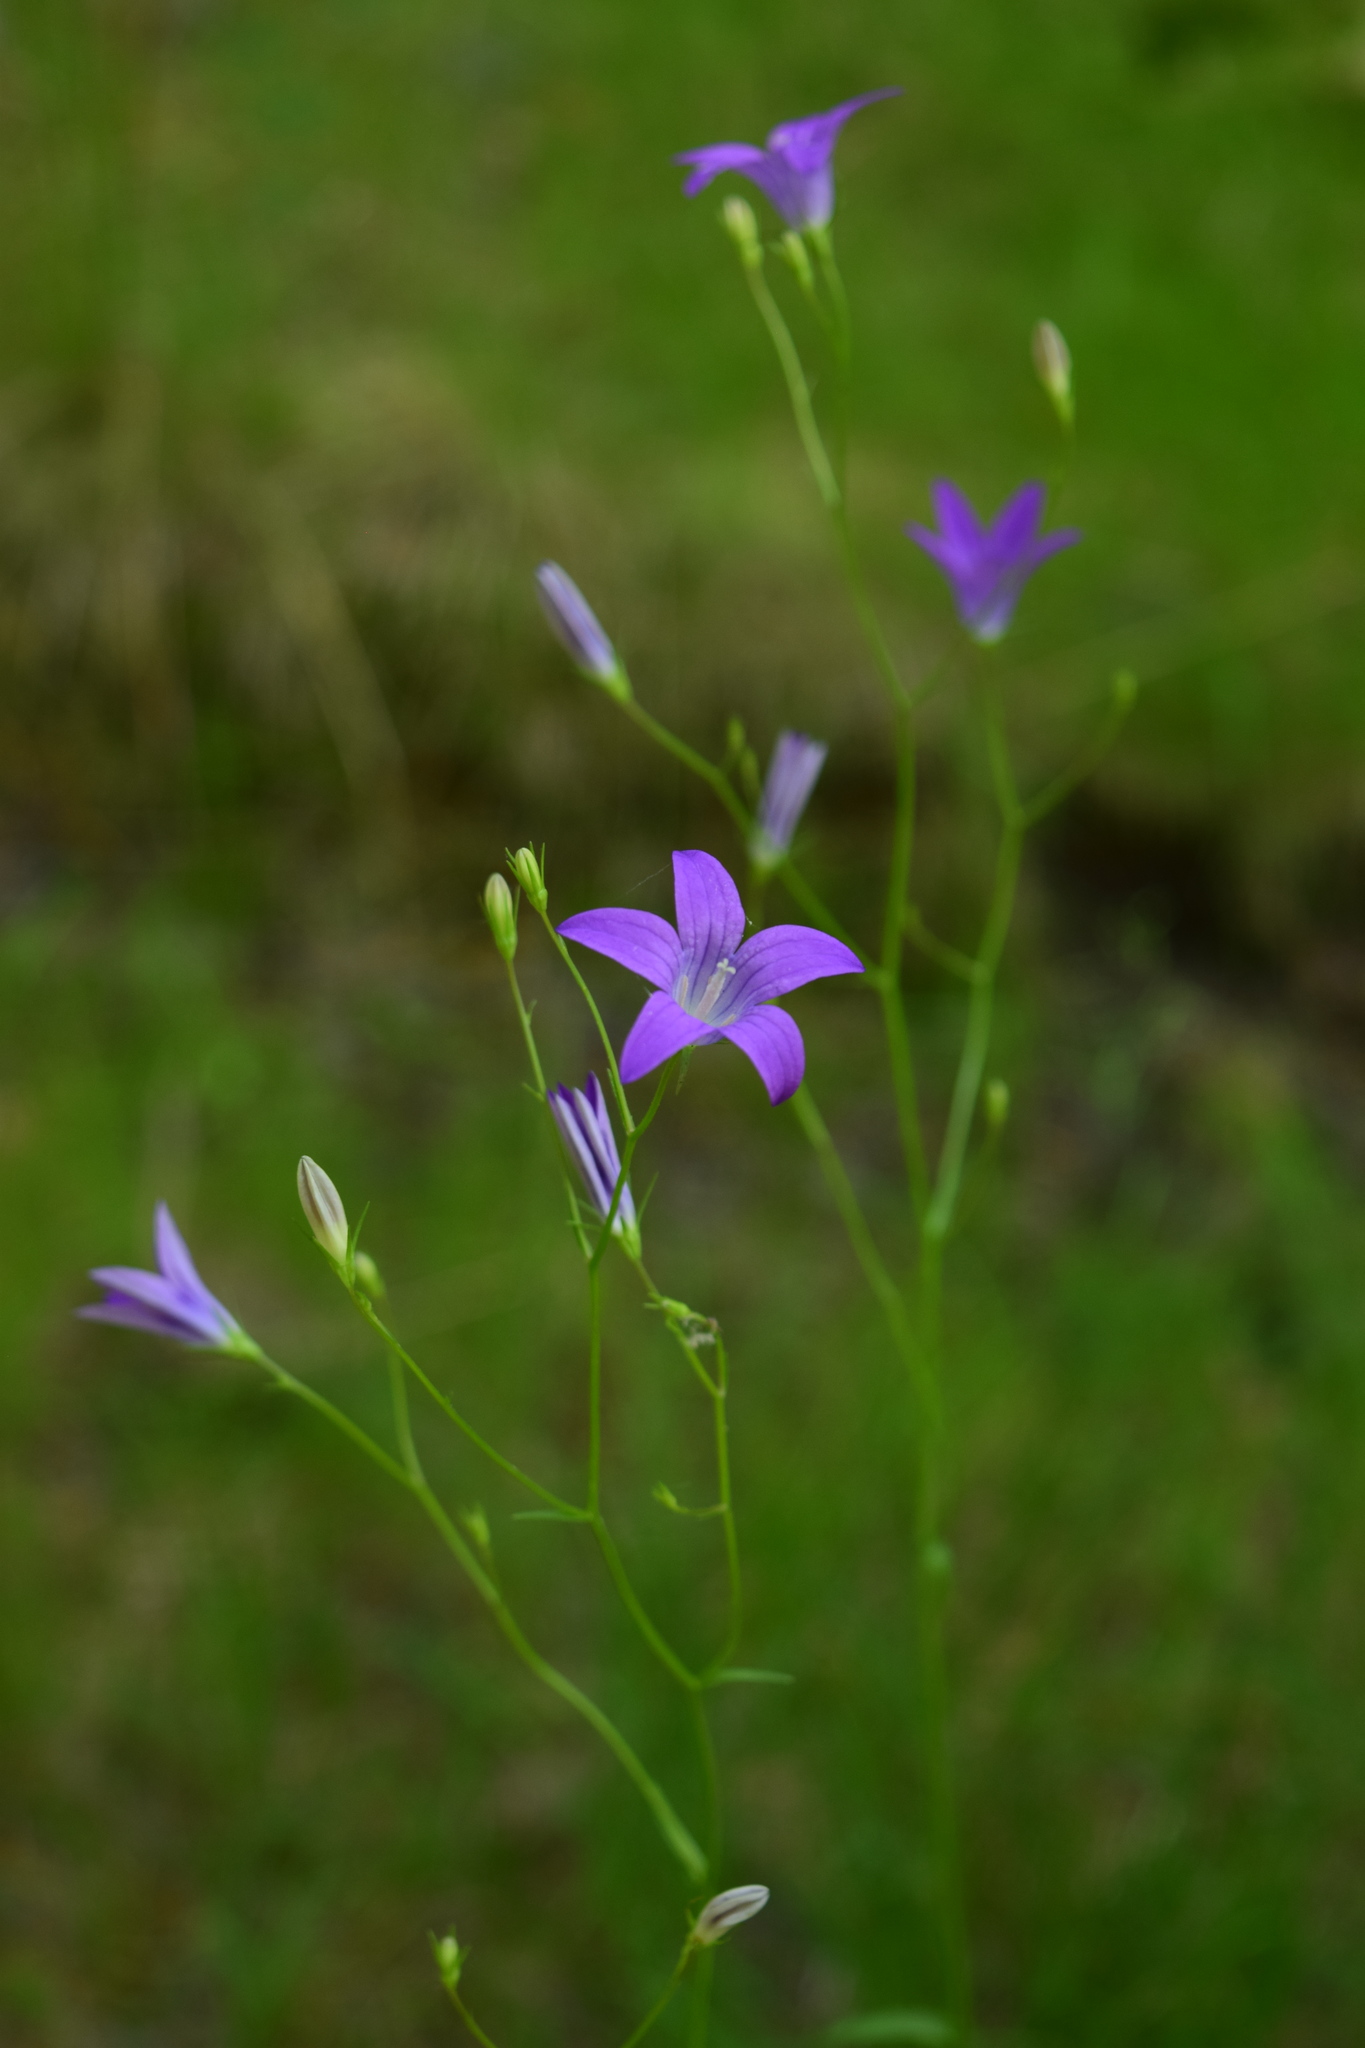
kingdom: Plantae
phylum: Tracheophyta
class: Magnoliopsida
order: Asterales
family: Campanulaceae
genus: Campanula
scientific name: Campanula patula
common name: Spreading bellflower
